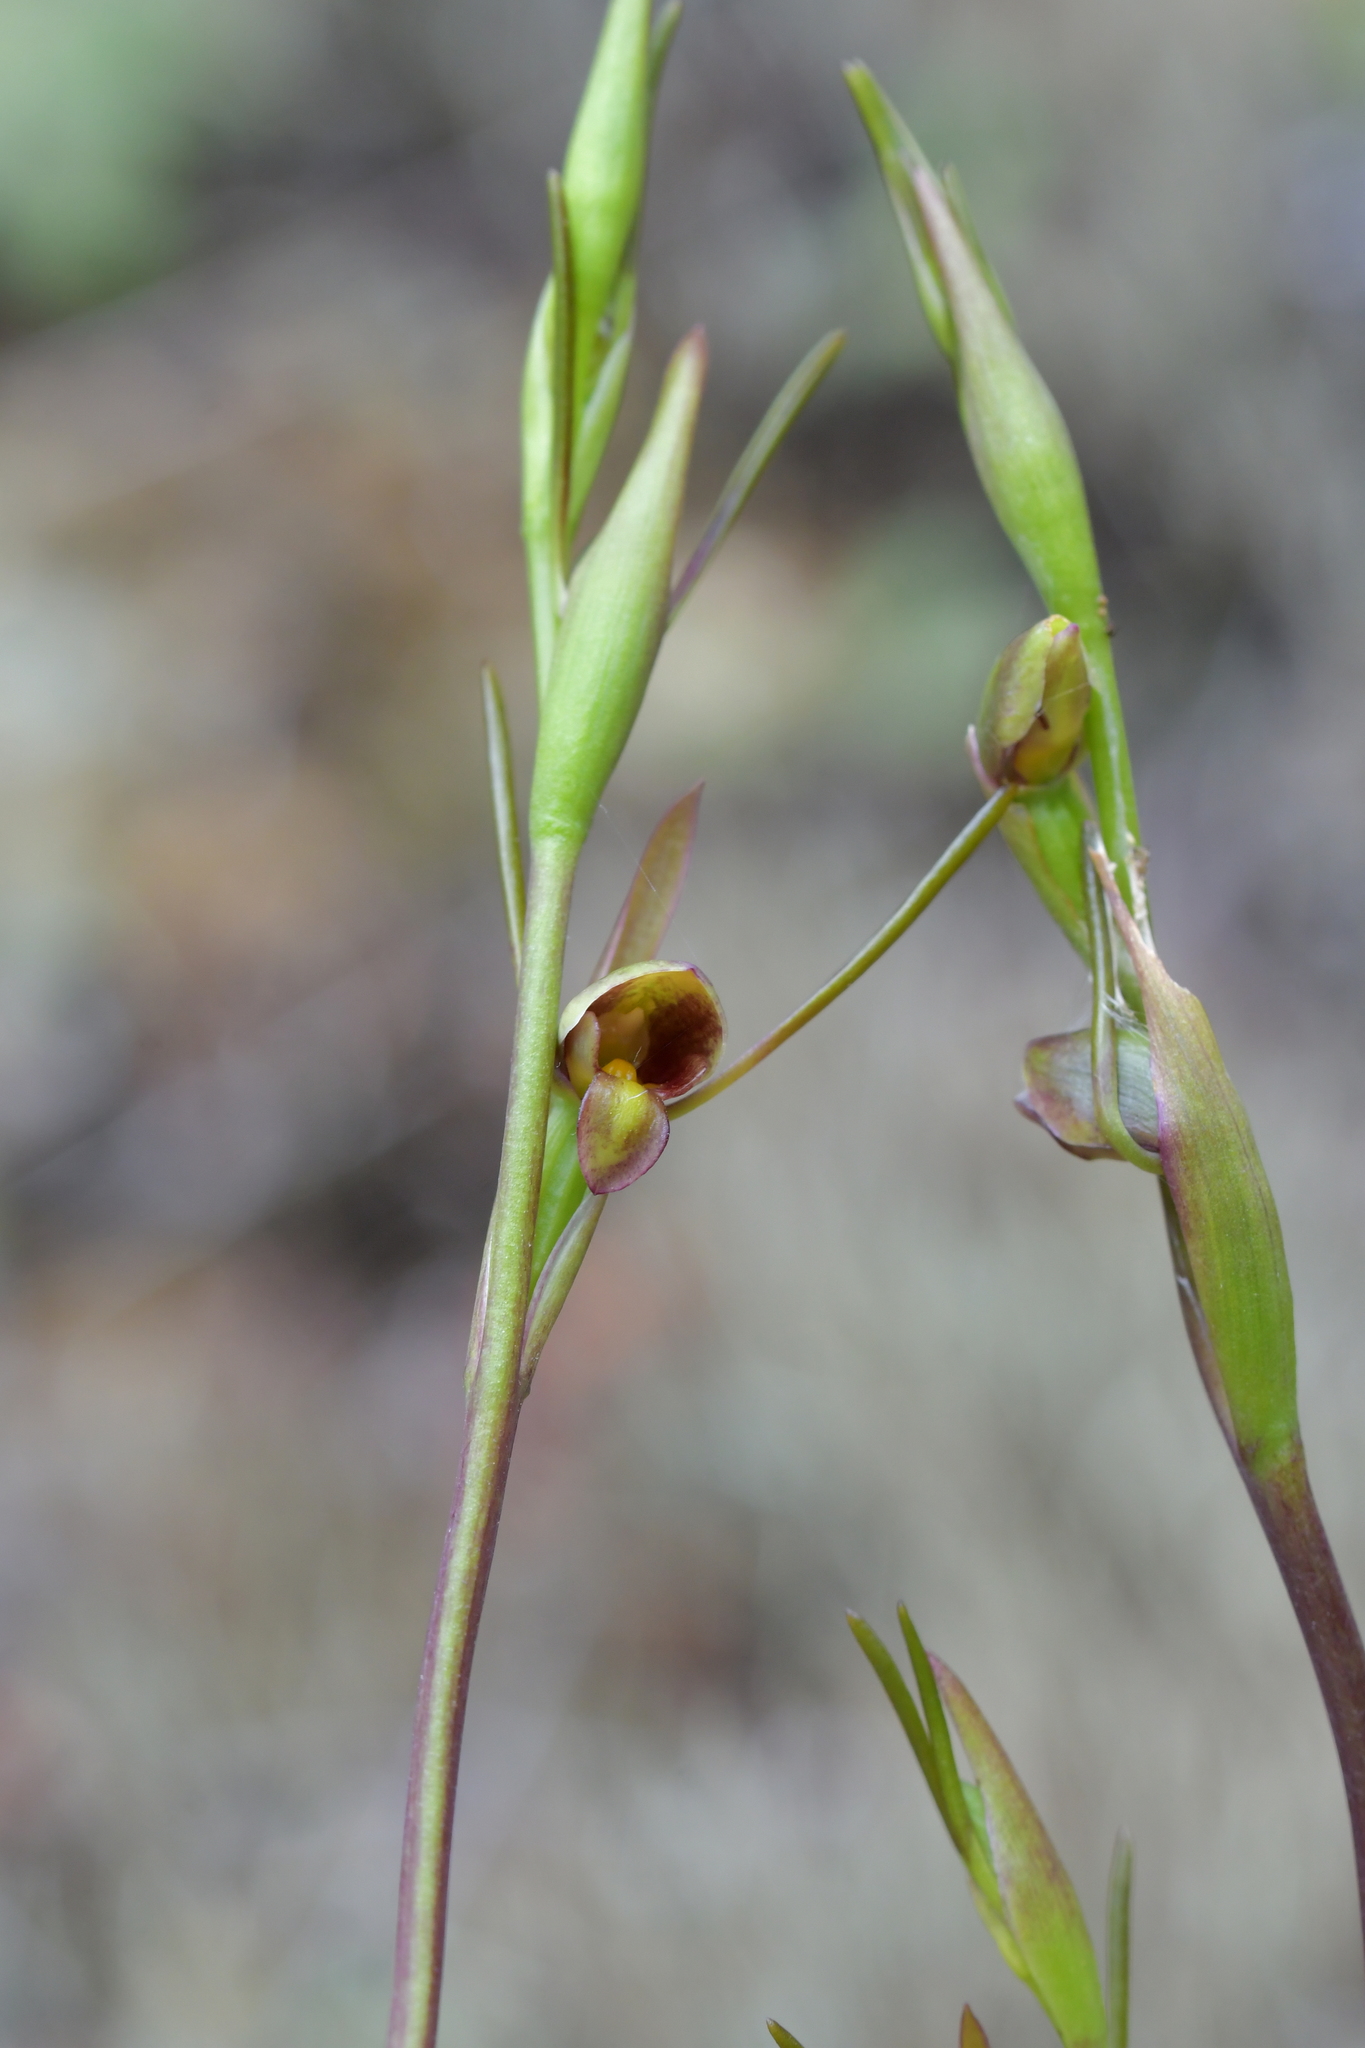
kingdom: Plantae
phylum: Tracheophyta
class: Liliopsida
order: Asparagales
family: Orchidaceae
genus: Orthoceras
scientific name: Orthoceras novae-zeelandiae
